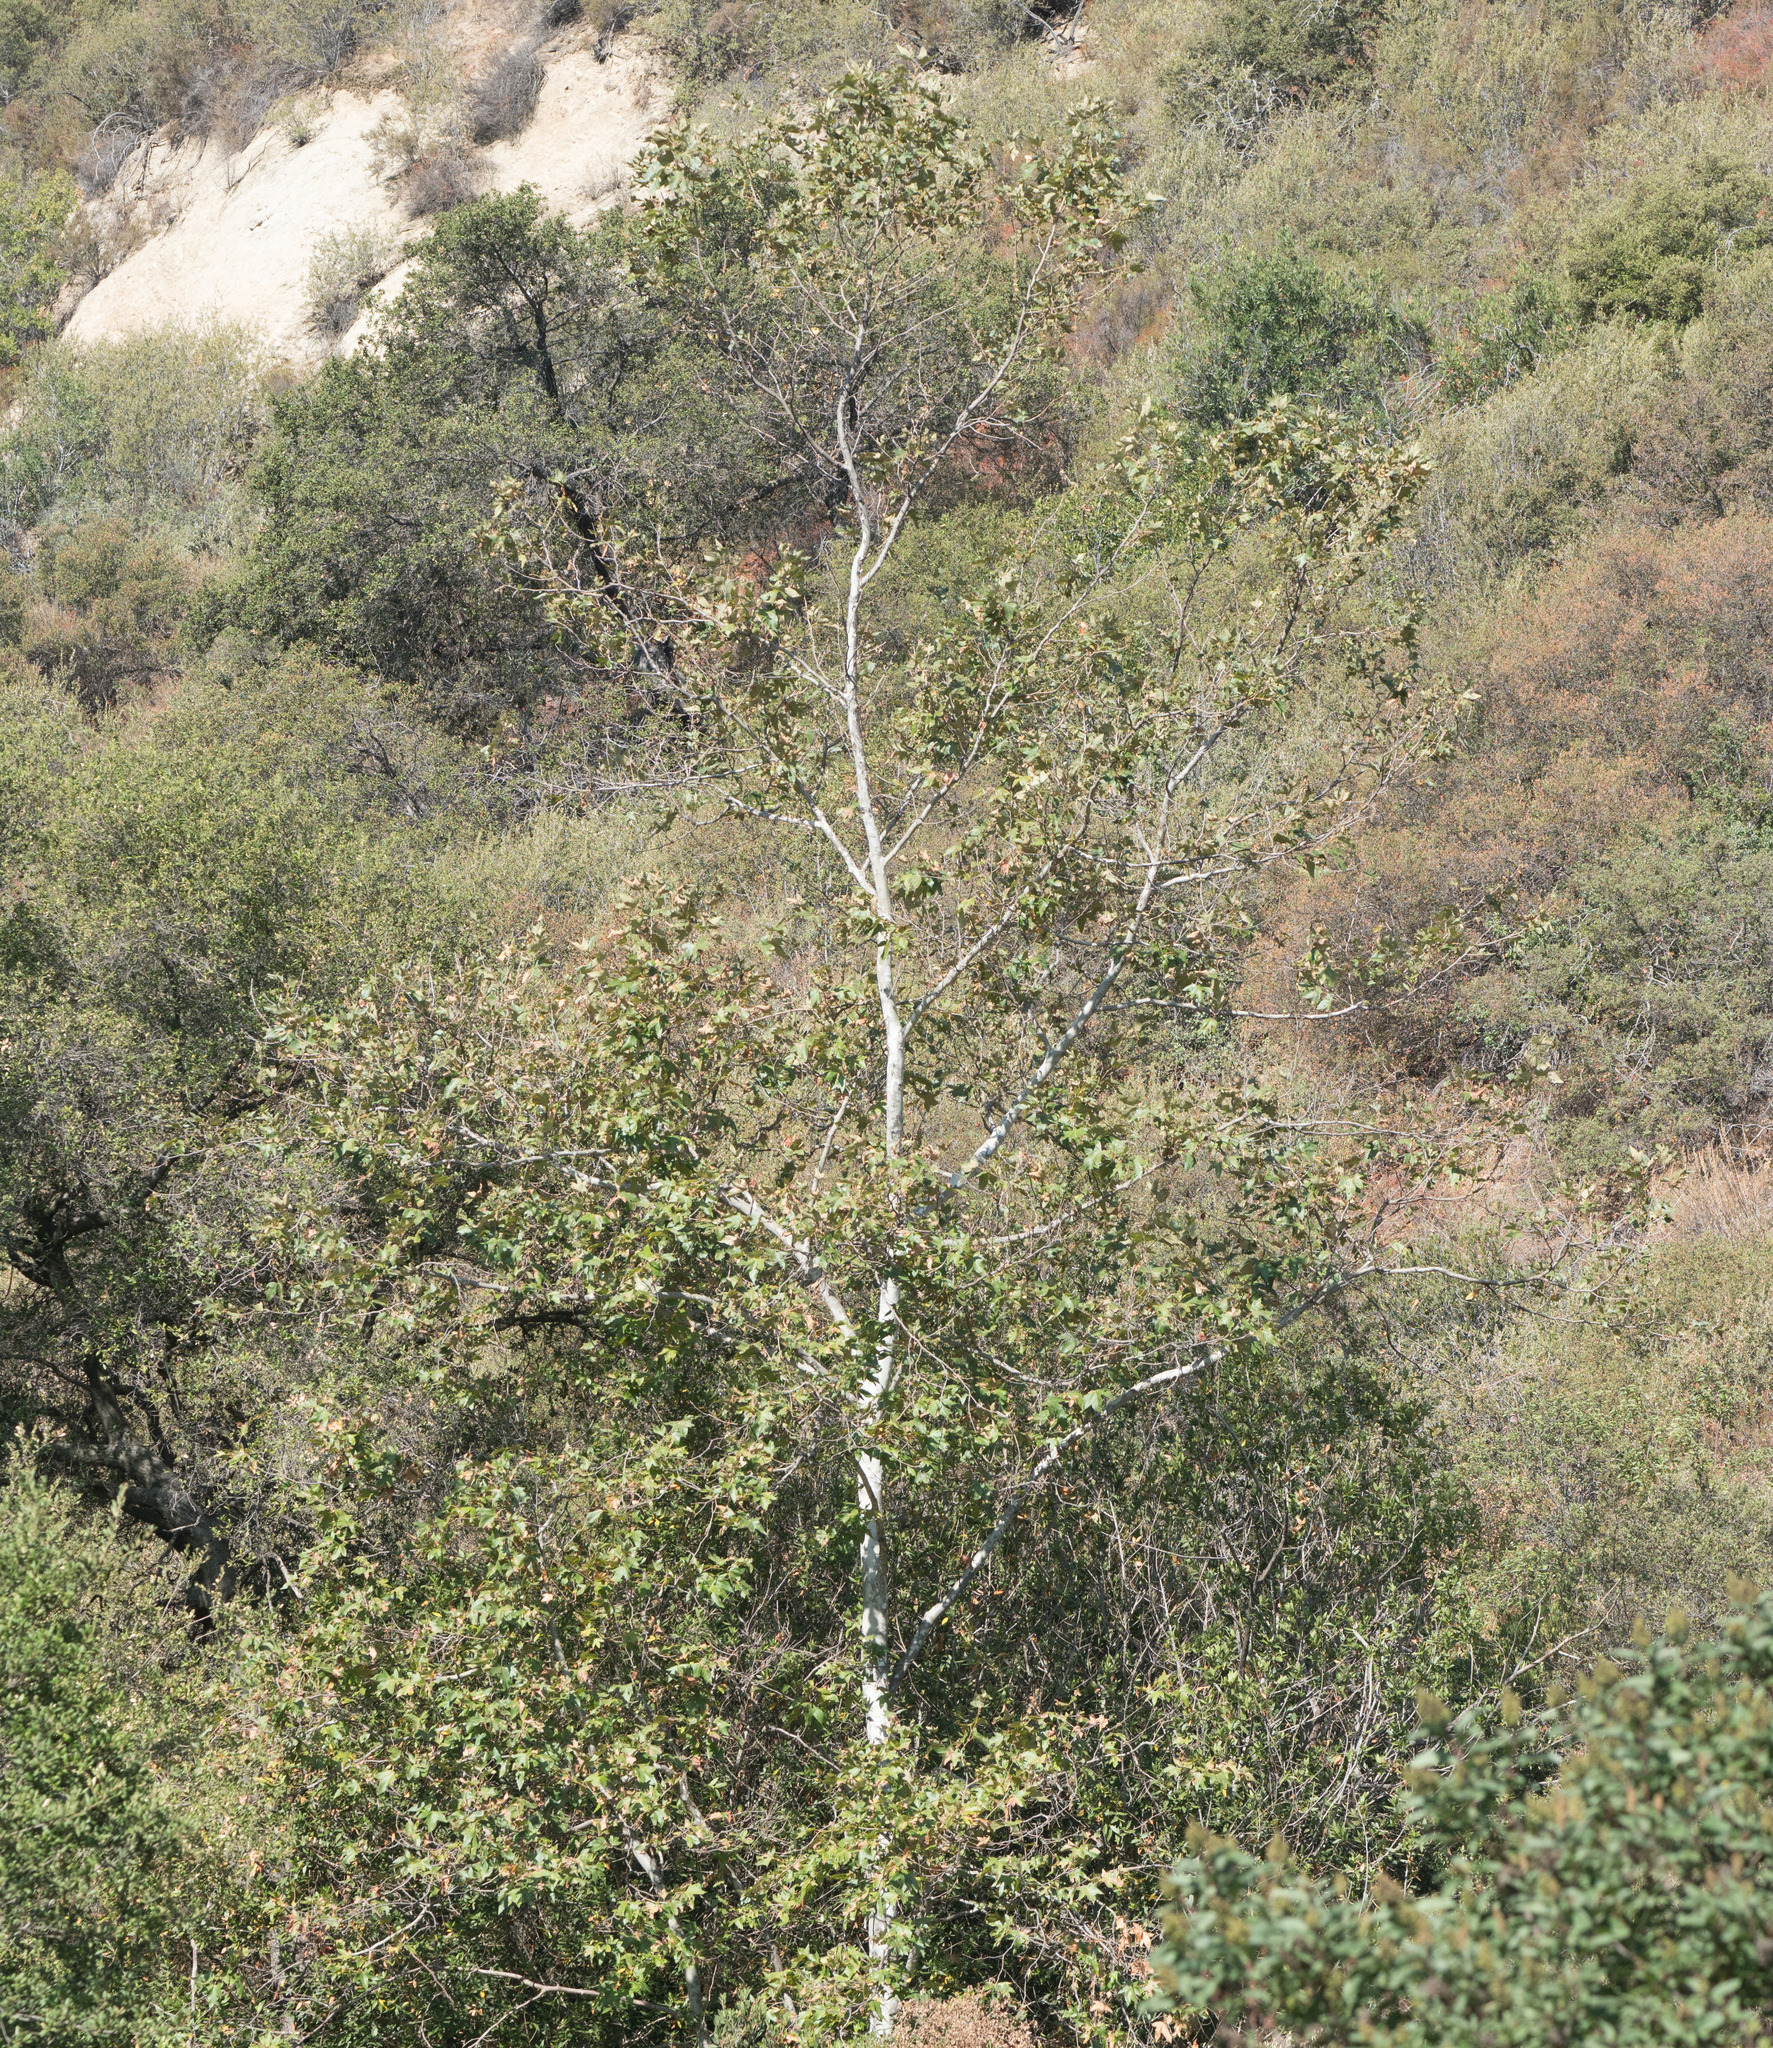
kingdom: Plantae
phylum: Tracheophyta
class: Magnoliopsida
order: Proteales
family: Platanaceae
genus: Platanus
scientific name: Platanus racemosa
